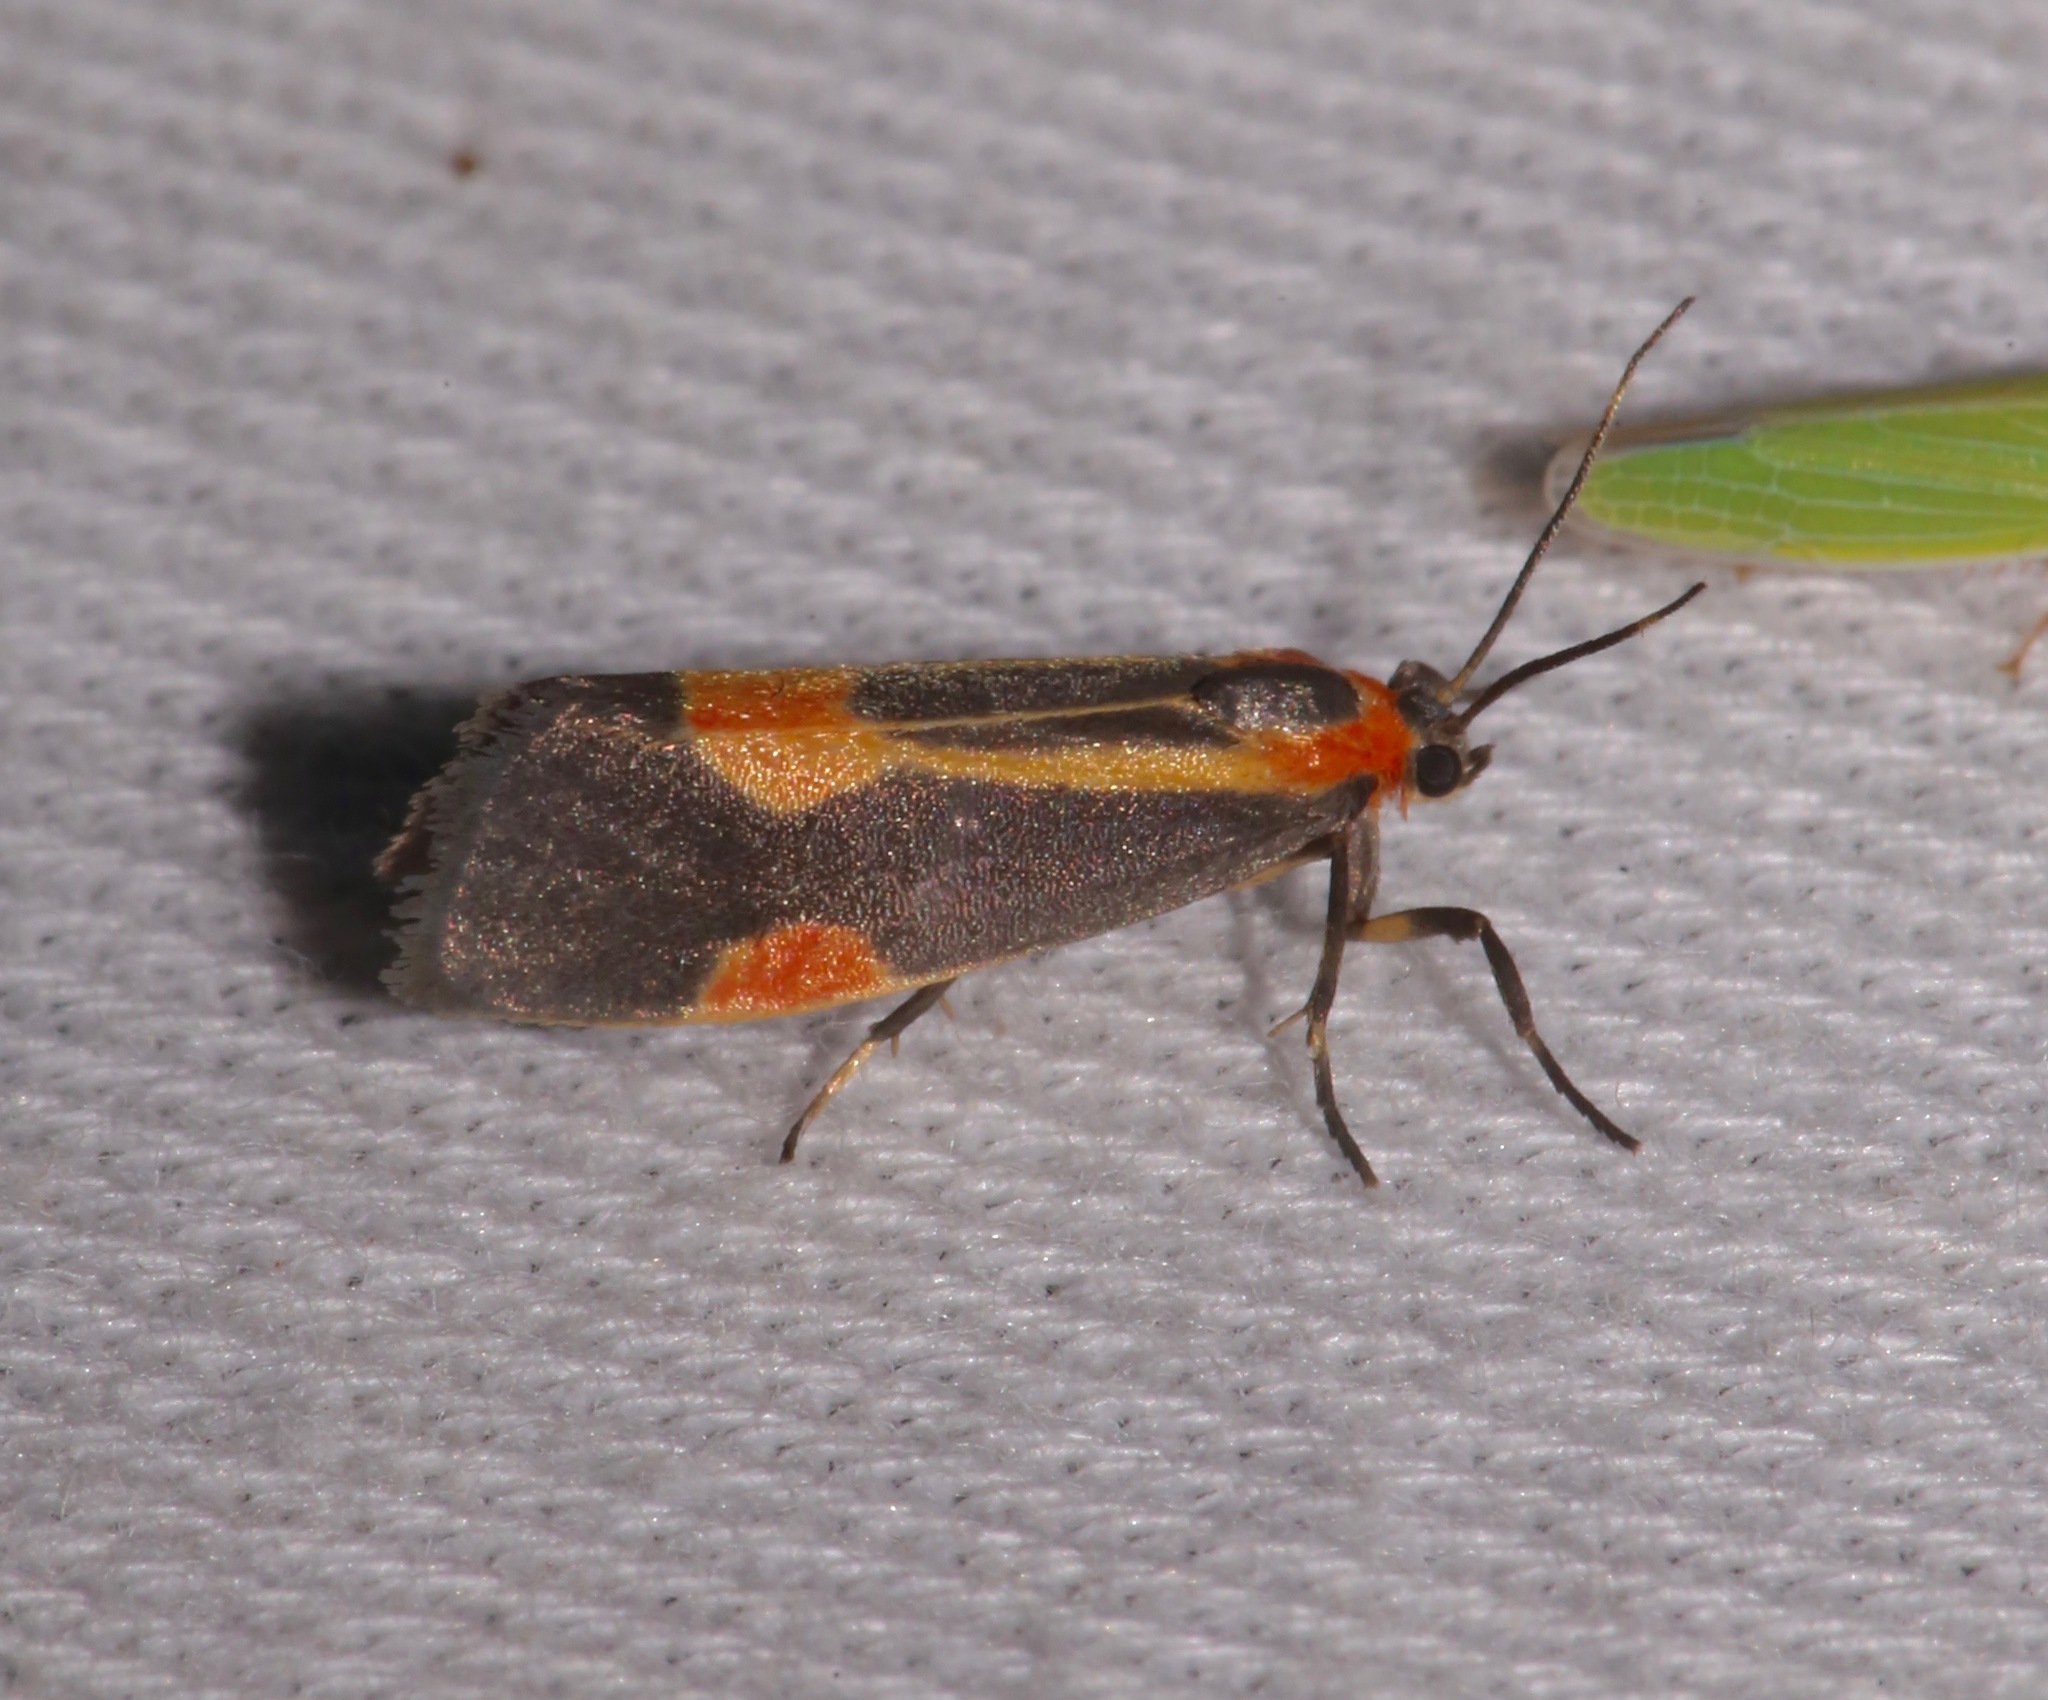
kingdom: Animalia
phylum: Arthropoda
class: Insecta
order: Lepidoptera
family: Erebidae
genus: Cisthene
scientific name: Cisthene packardii
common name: Packard's lichen moth
